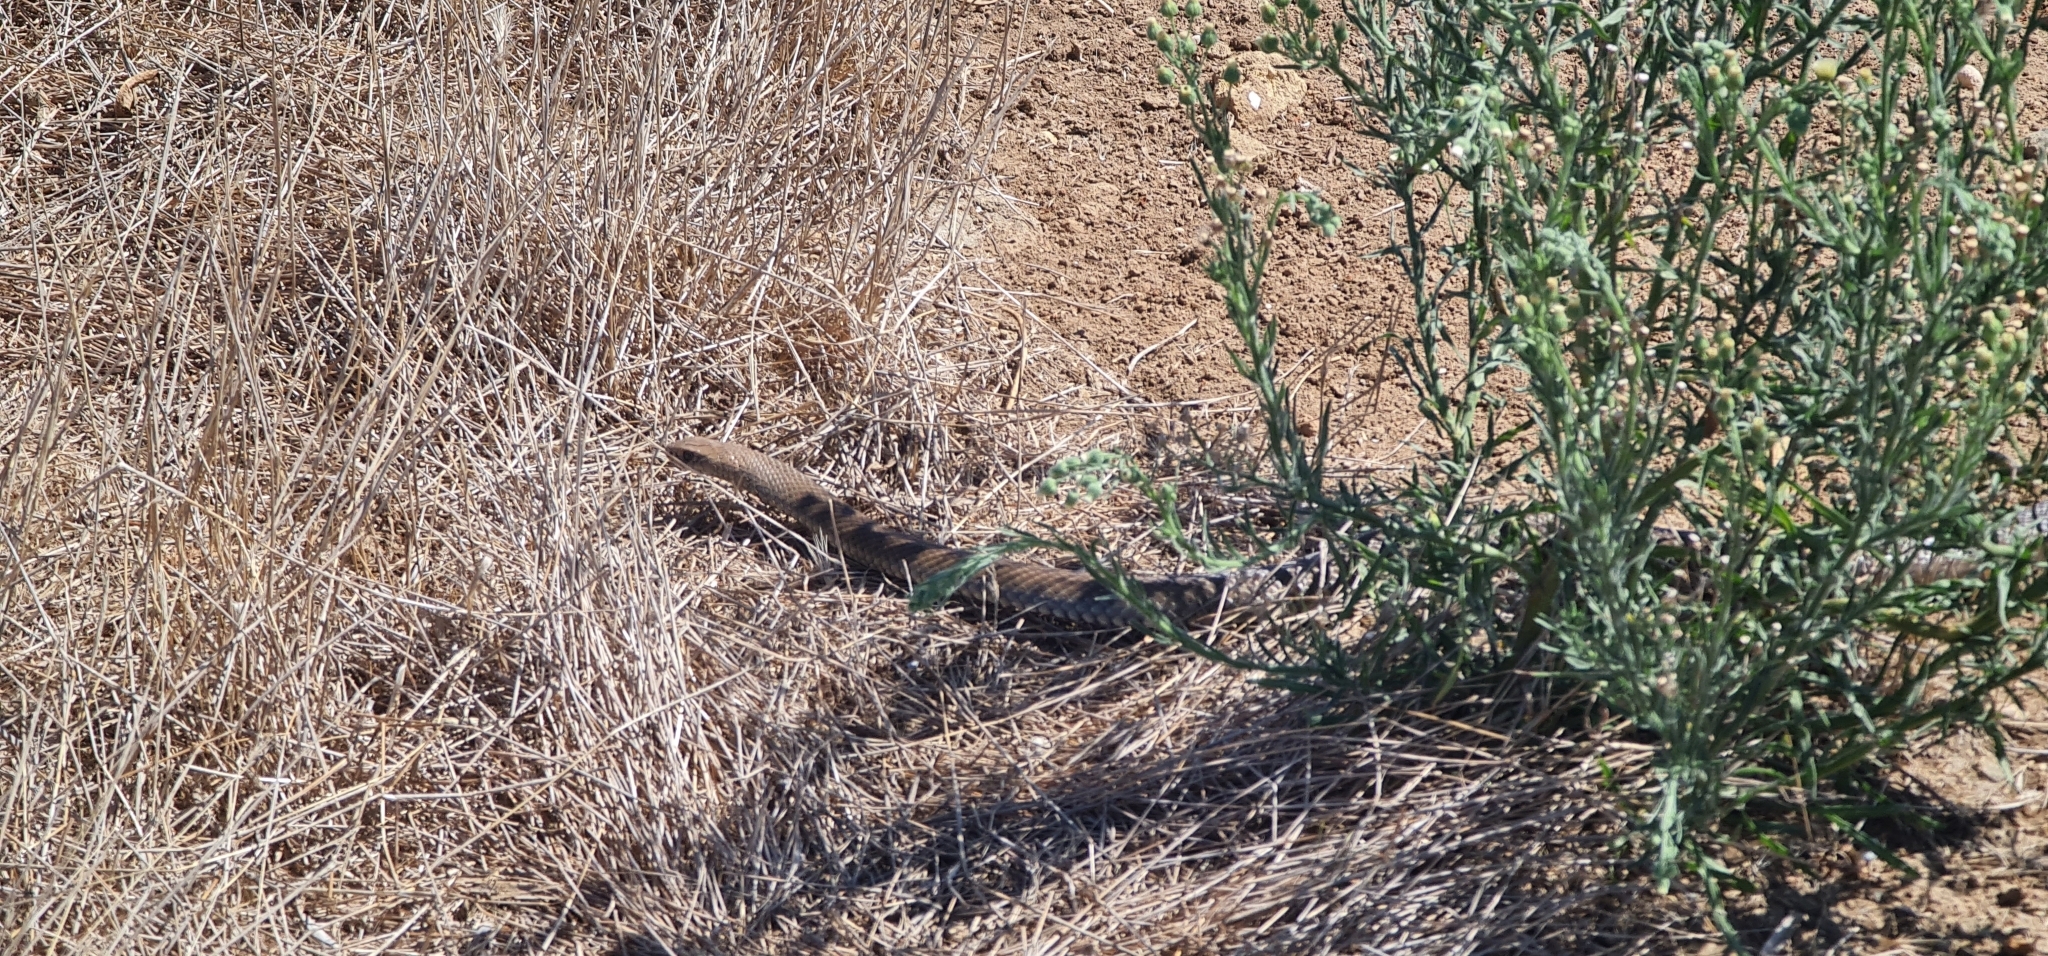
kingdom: Animalia
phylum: Chordata
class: Squamata
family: Elapidae
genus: Pseudonaja
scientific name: Pseudonaja textilis
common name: Eastern brown snake
